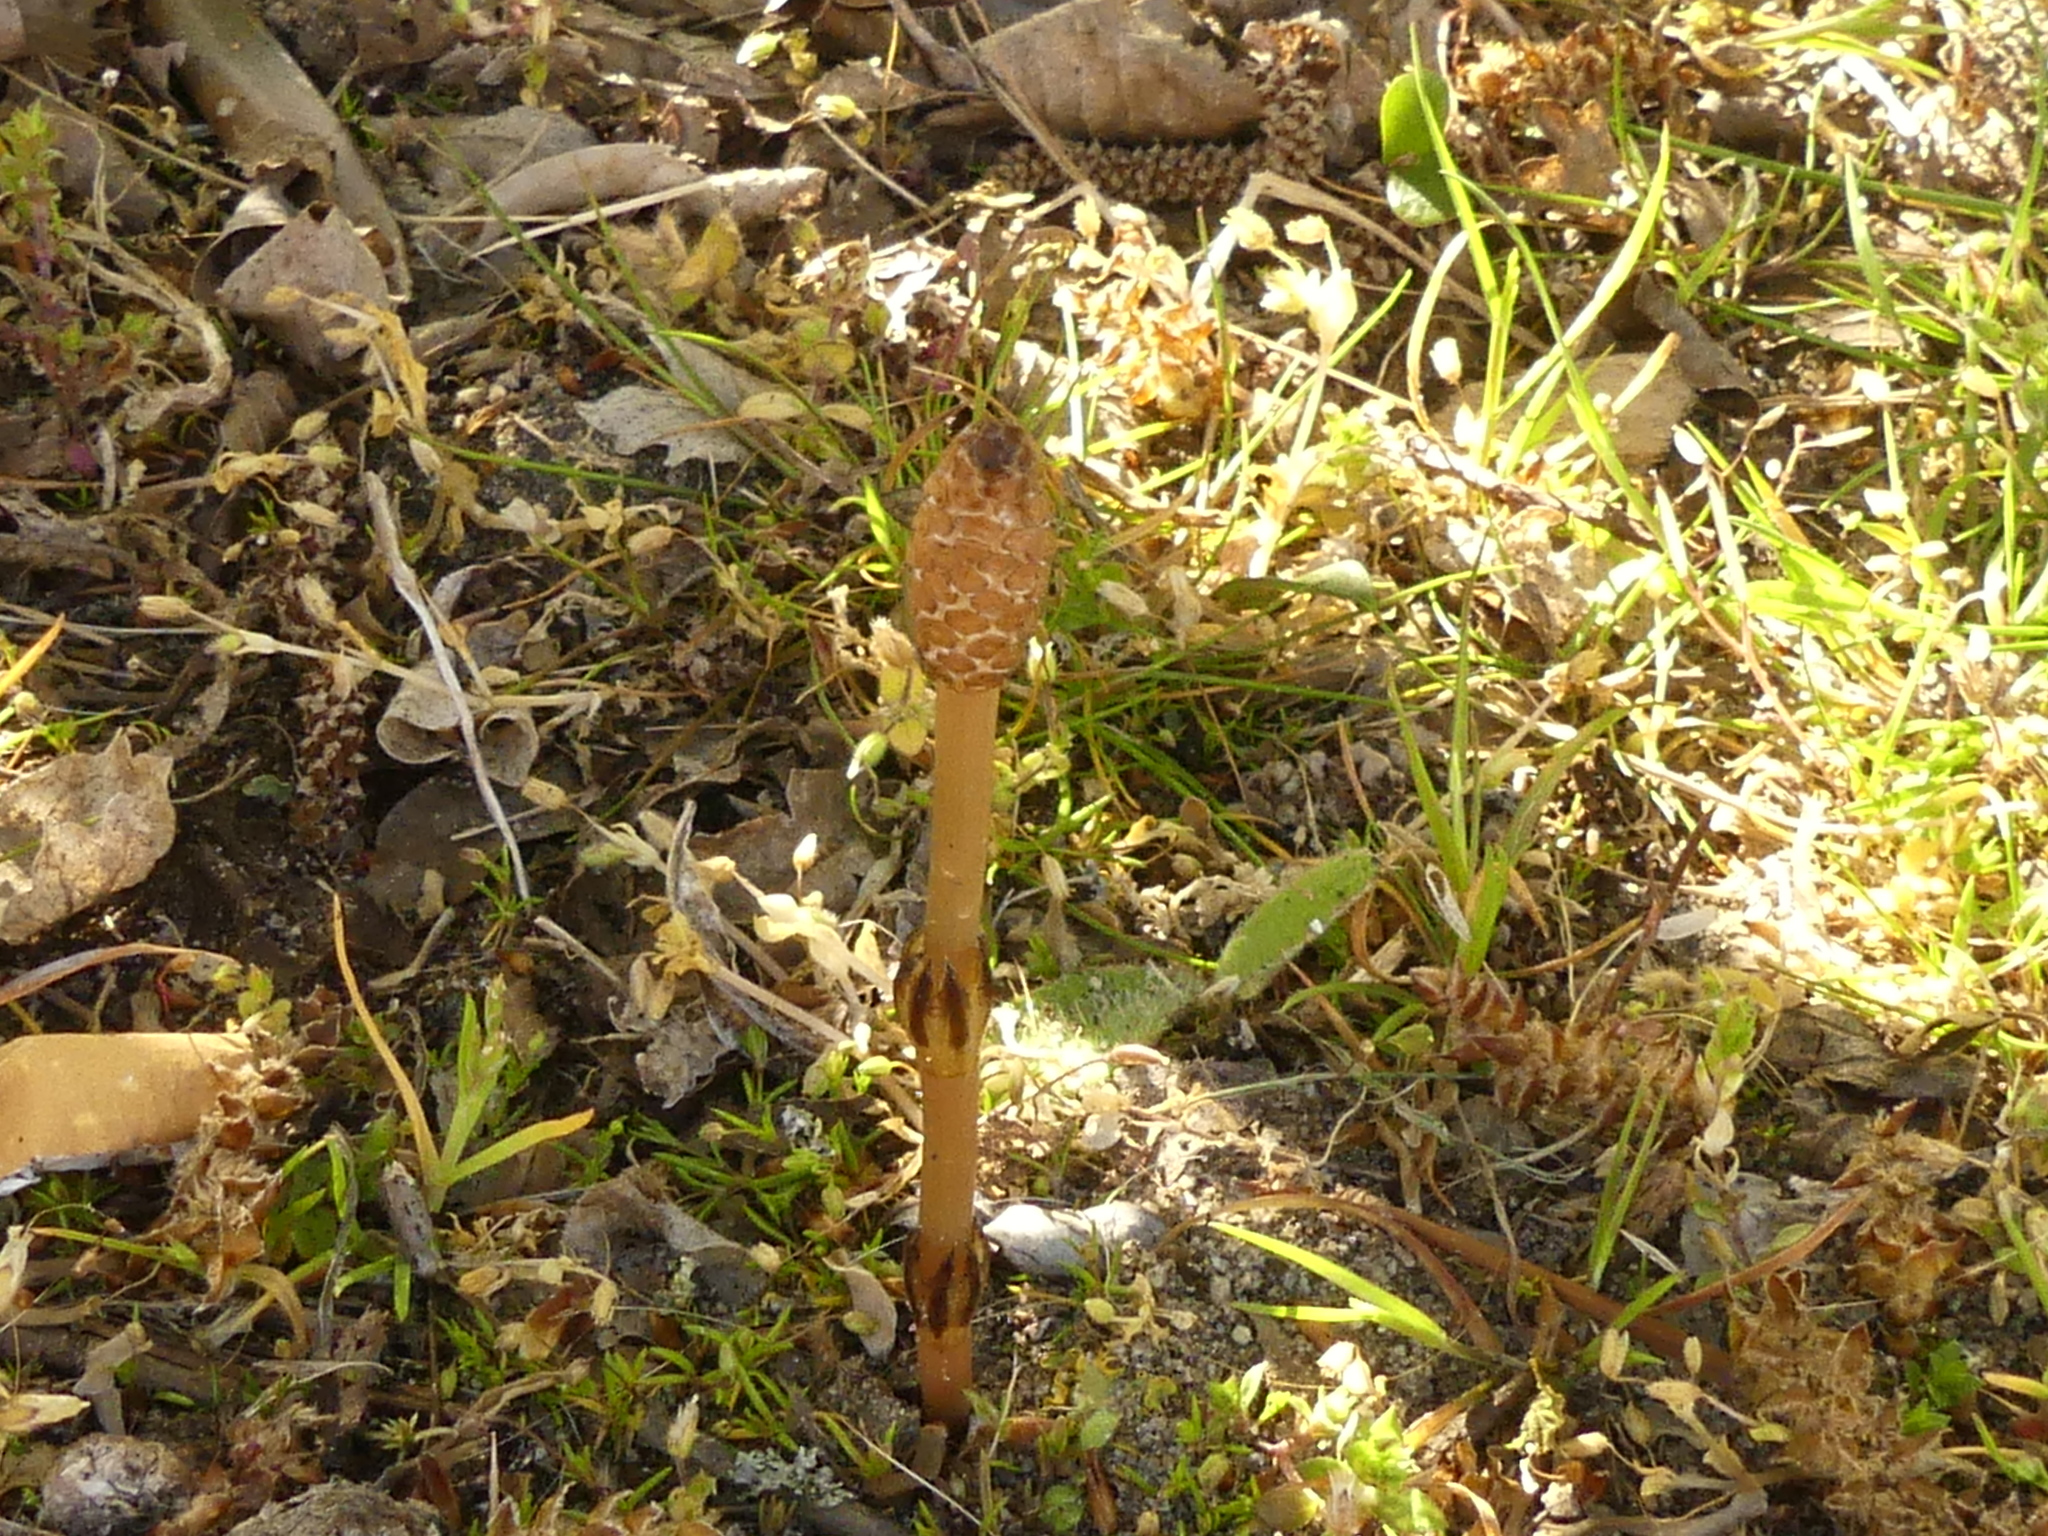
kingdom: Plantae
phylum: Tracheophyta
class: Polypodiopsida
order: Equisetales
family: Equisetaceae
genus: Equisetum
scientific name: Equisetum arvense
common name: Field horsetail
